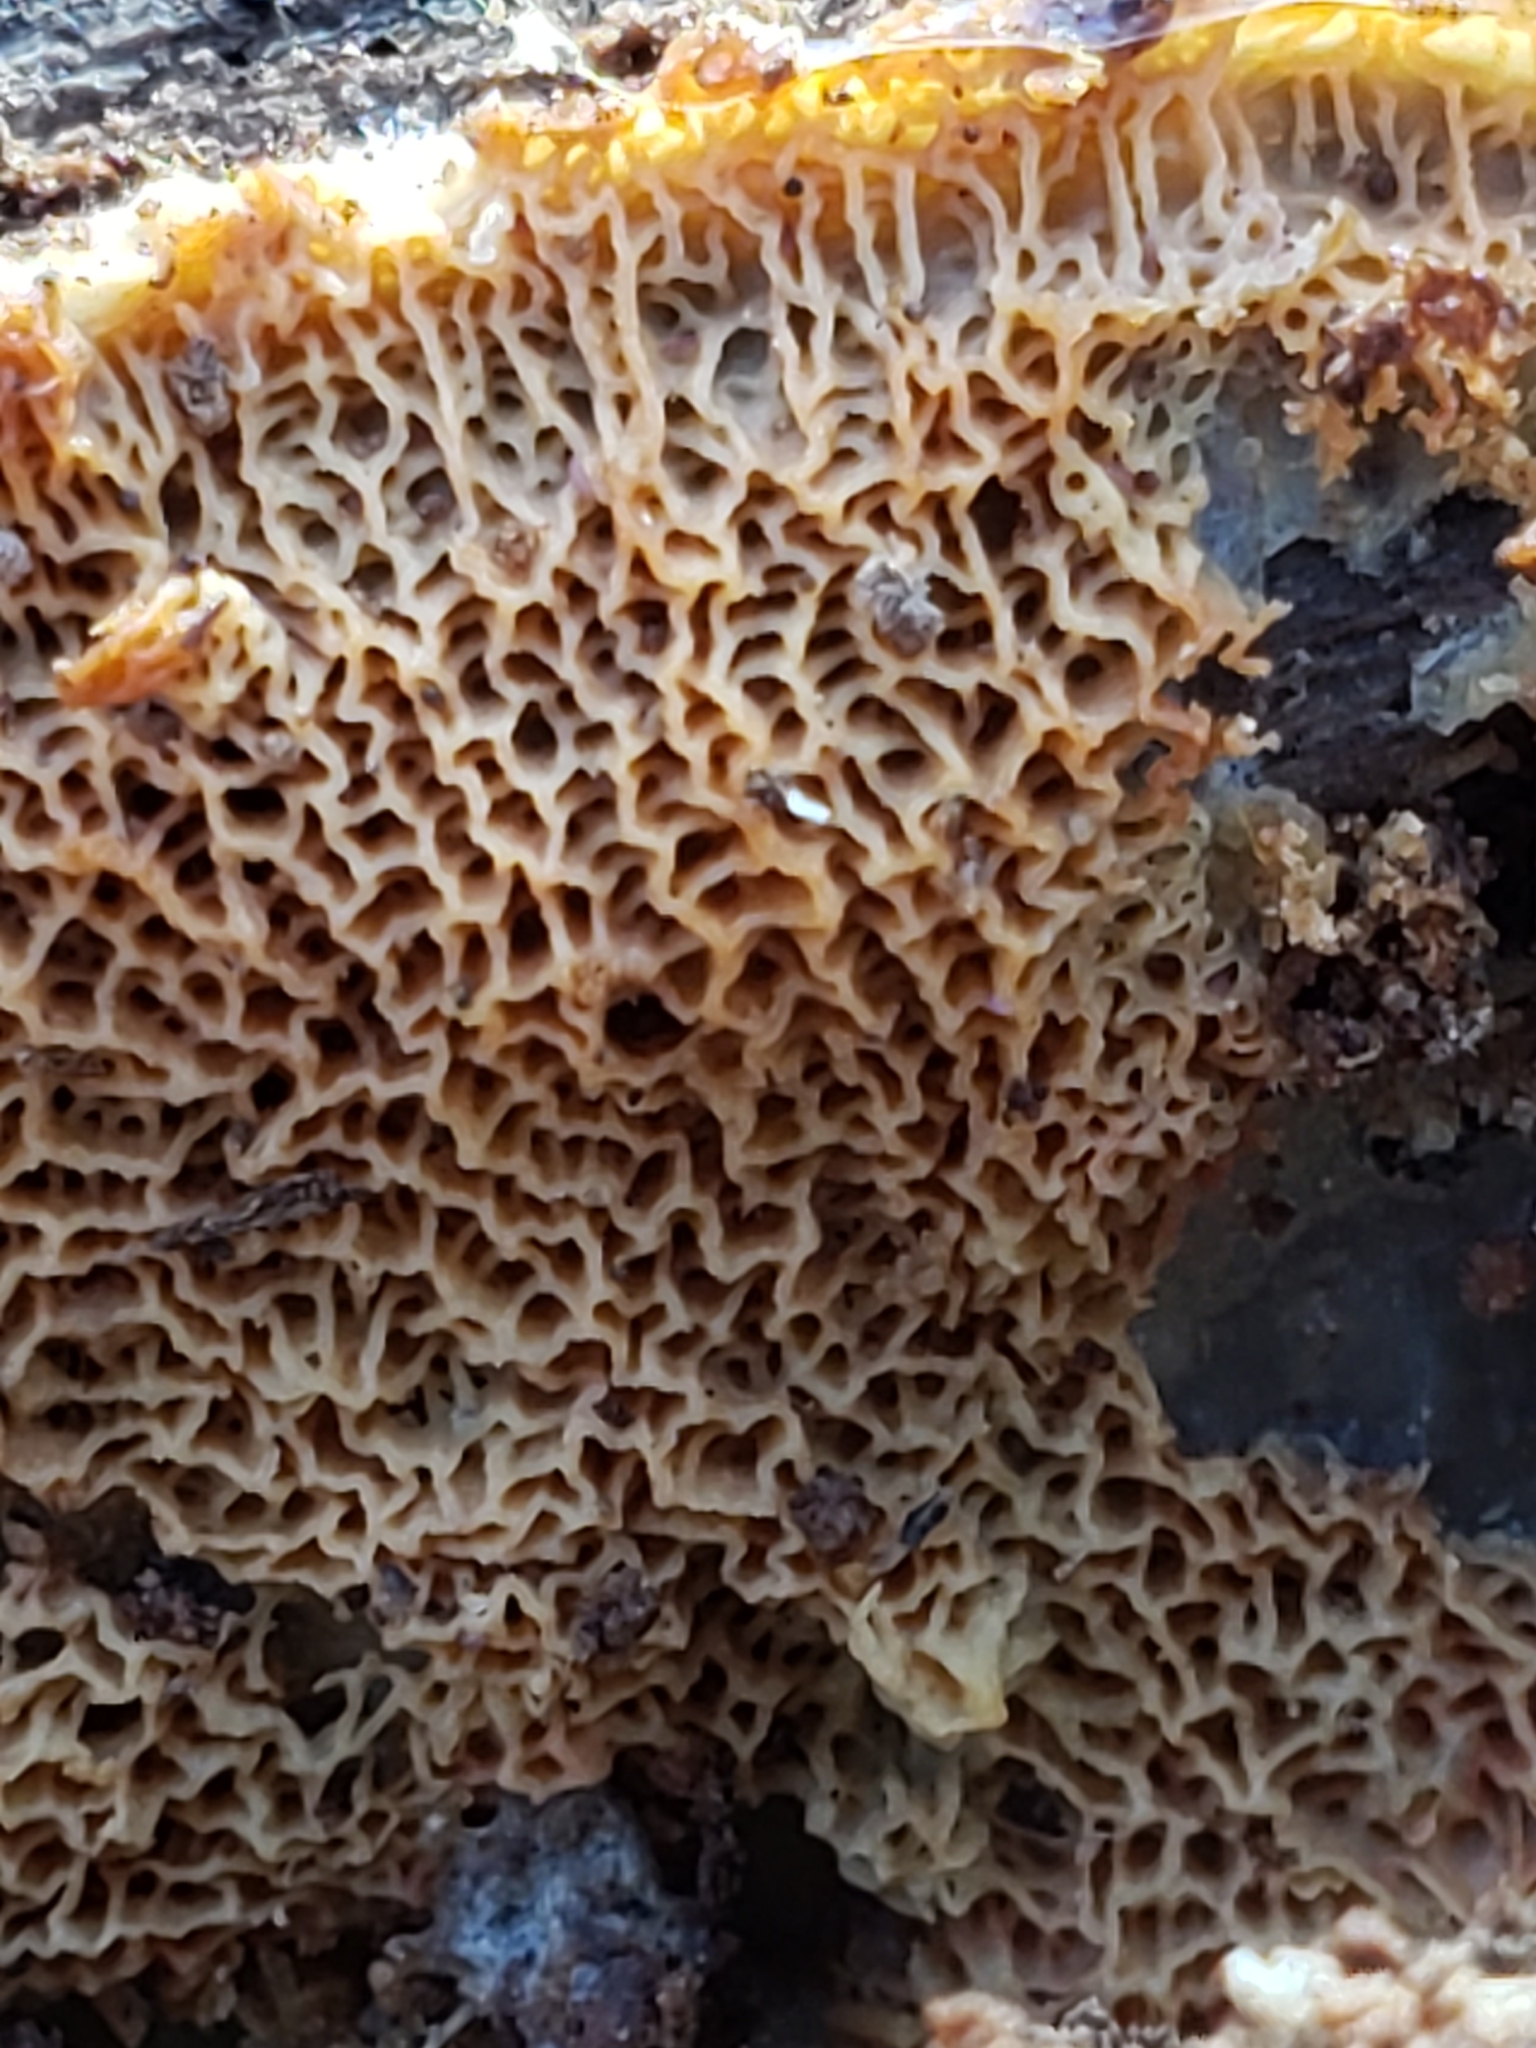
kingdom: Fungi
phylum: Basidiomycota
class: Agaricomycetes
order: Polyporales
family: Meruliaceae
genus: Phlebia
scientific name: Phlebia tremellosa
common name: Jelly rot
